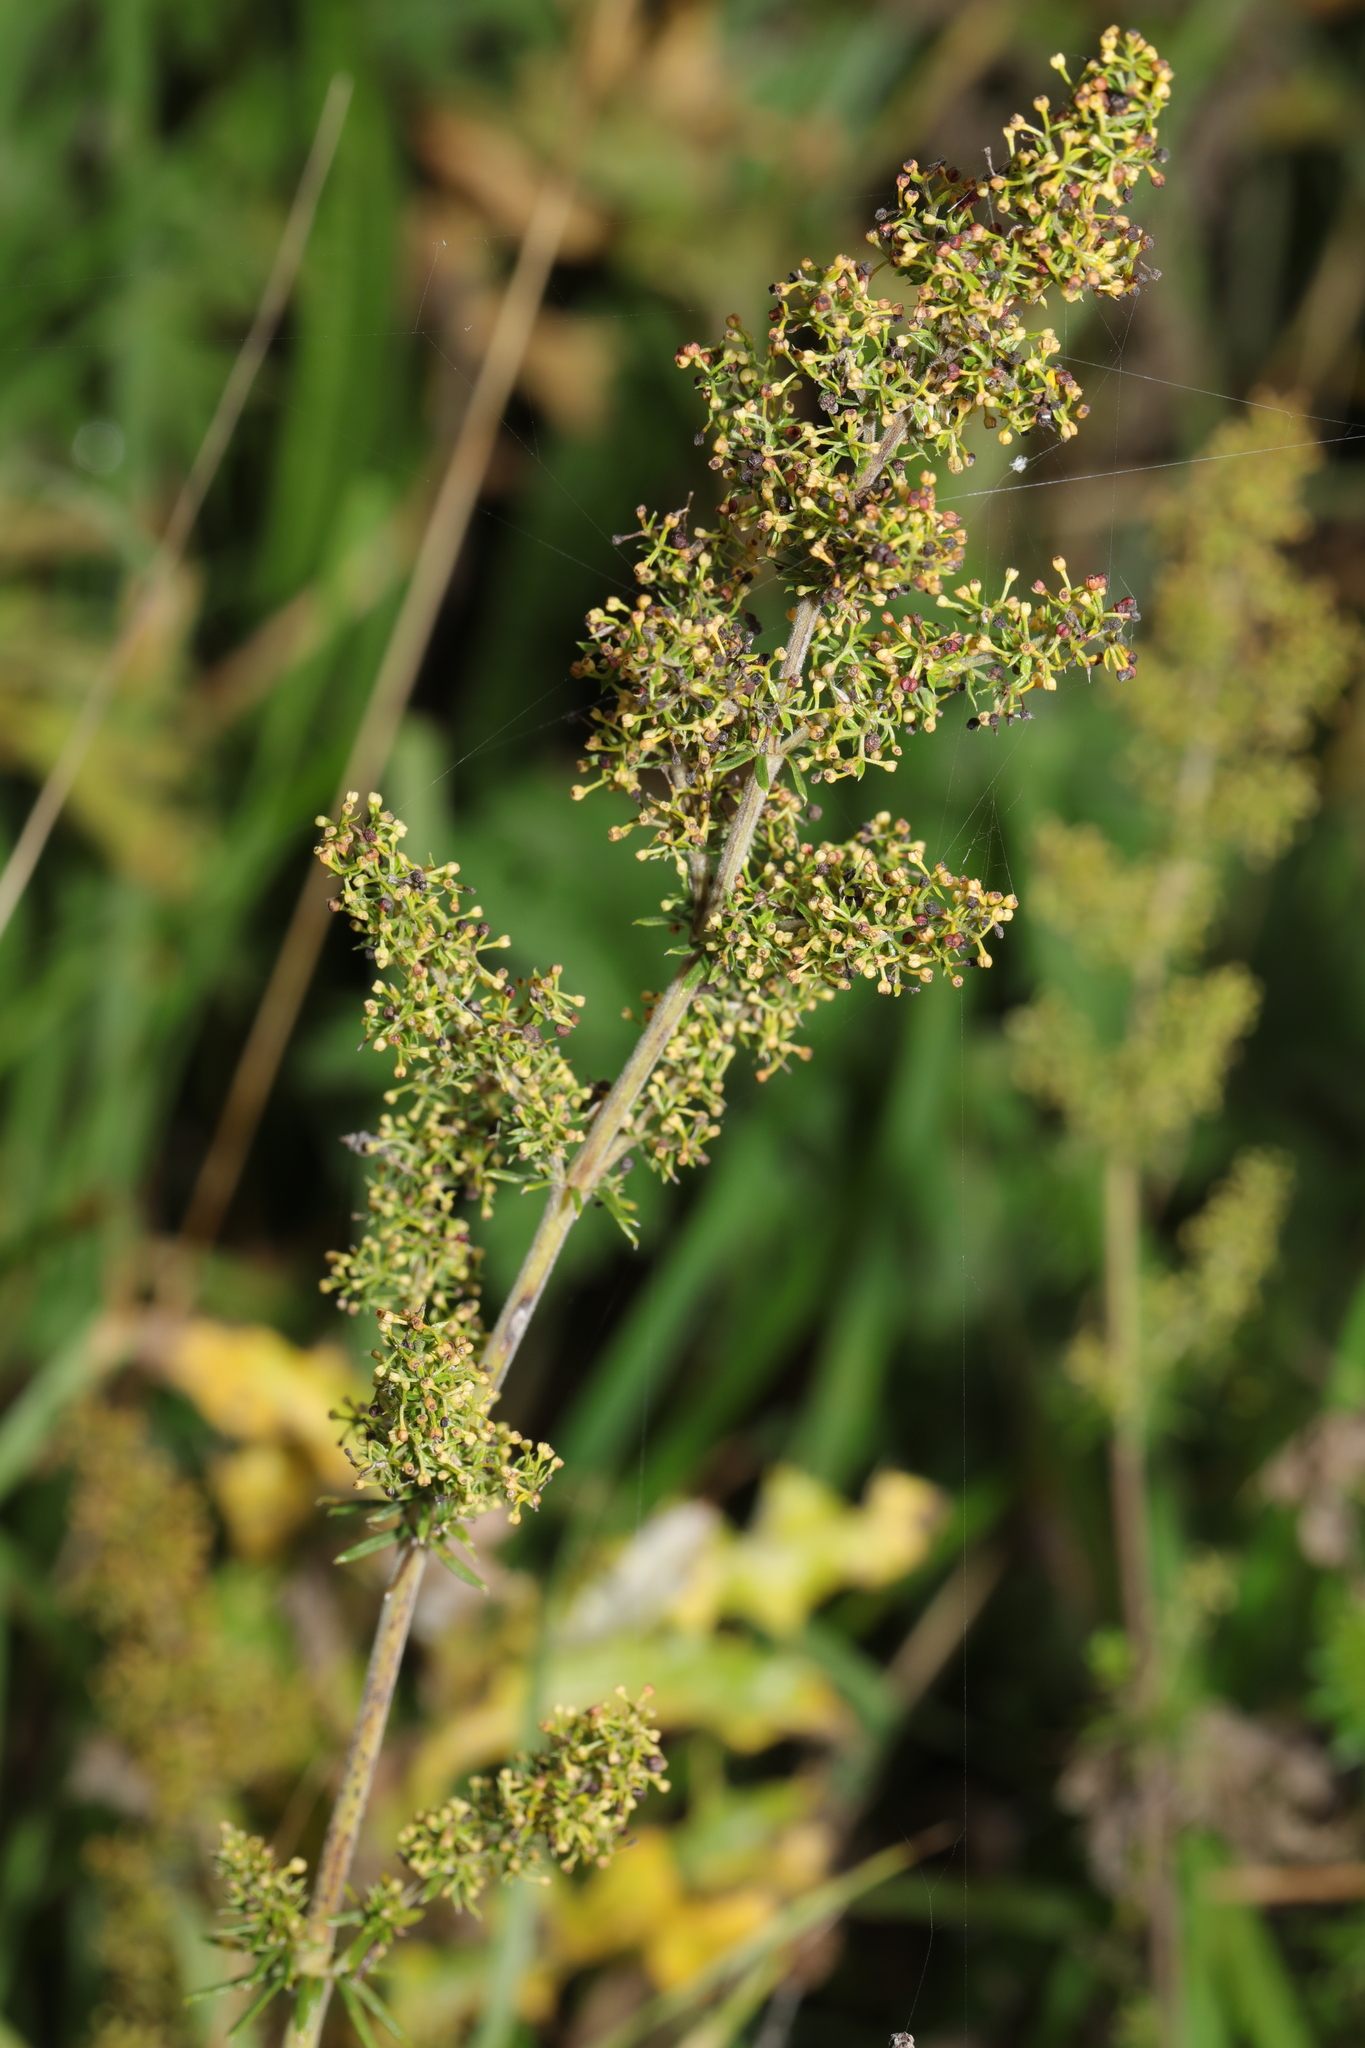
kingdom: Plantae
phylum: Tracheophyta
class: Magnoliopsida
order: Gentianales
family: Rubiaceae
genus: Galium
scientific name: Galium verum
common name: Lady's bedstraw
